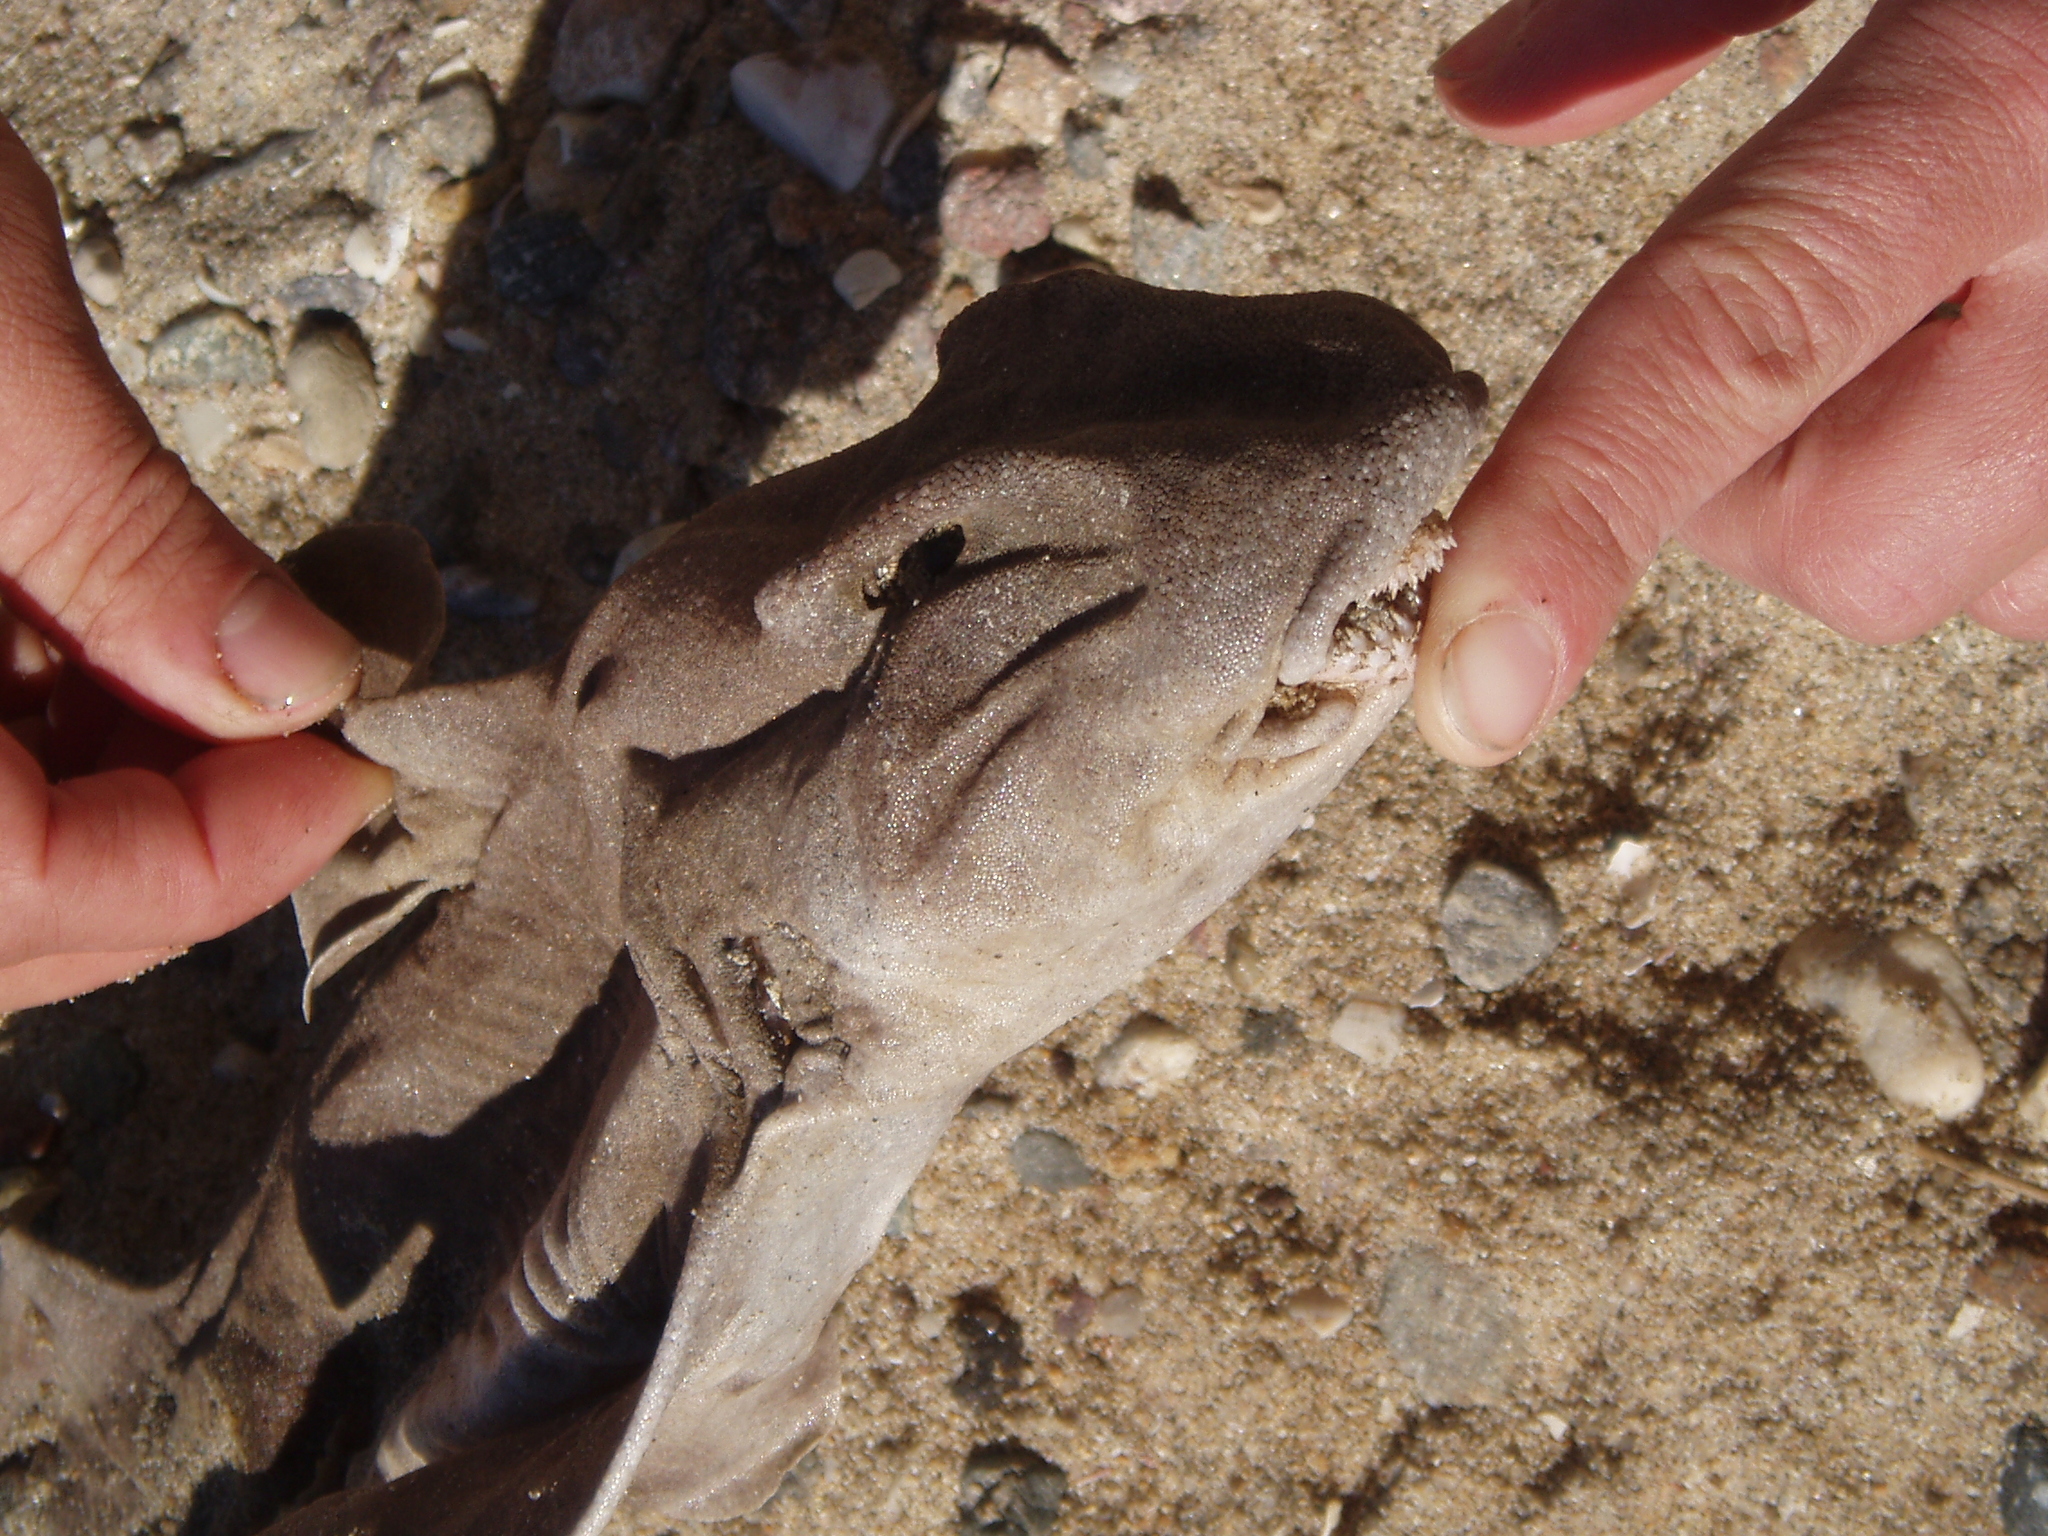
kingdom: Animalia
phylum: Chordata
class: Elasmobranchii
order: Heterodontiformes
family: Heterodontidae
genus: Heterodontus
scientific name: Heterodontus francisci
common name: Horn shark
